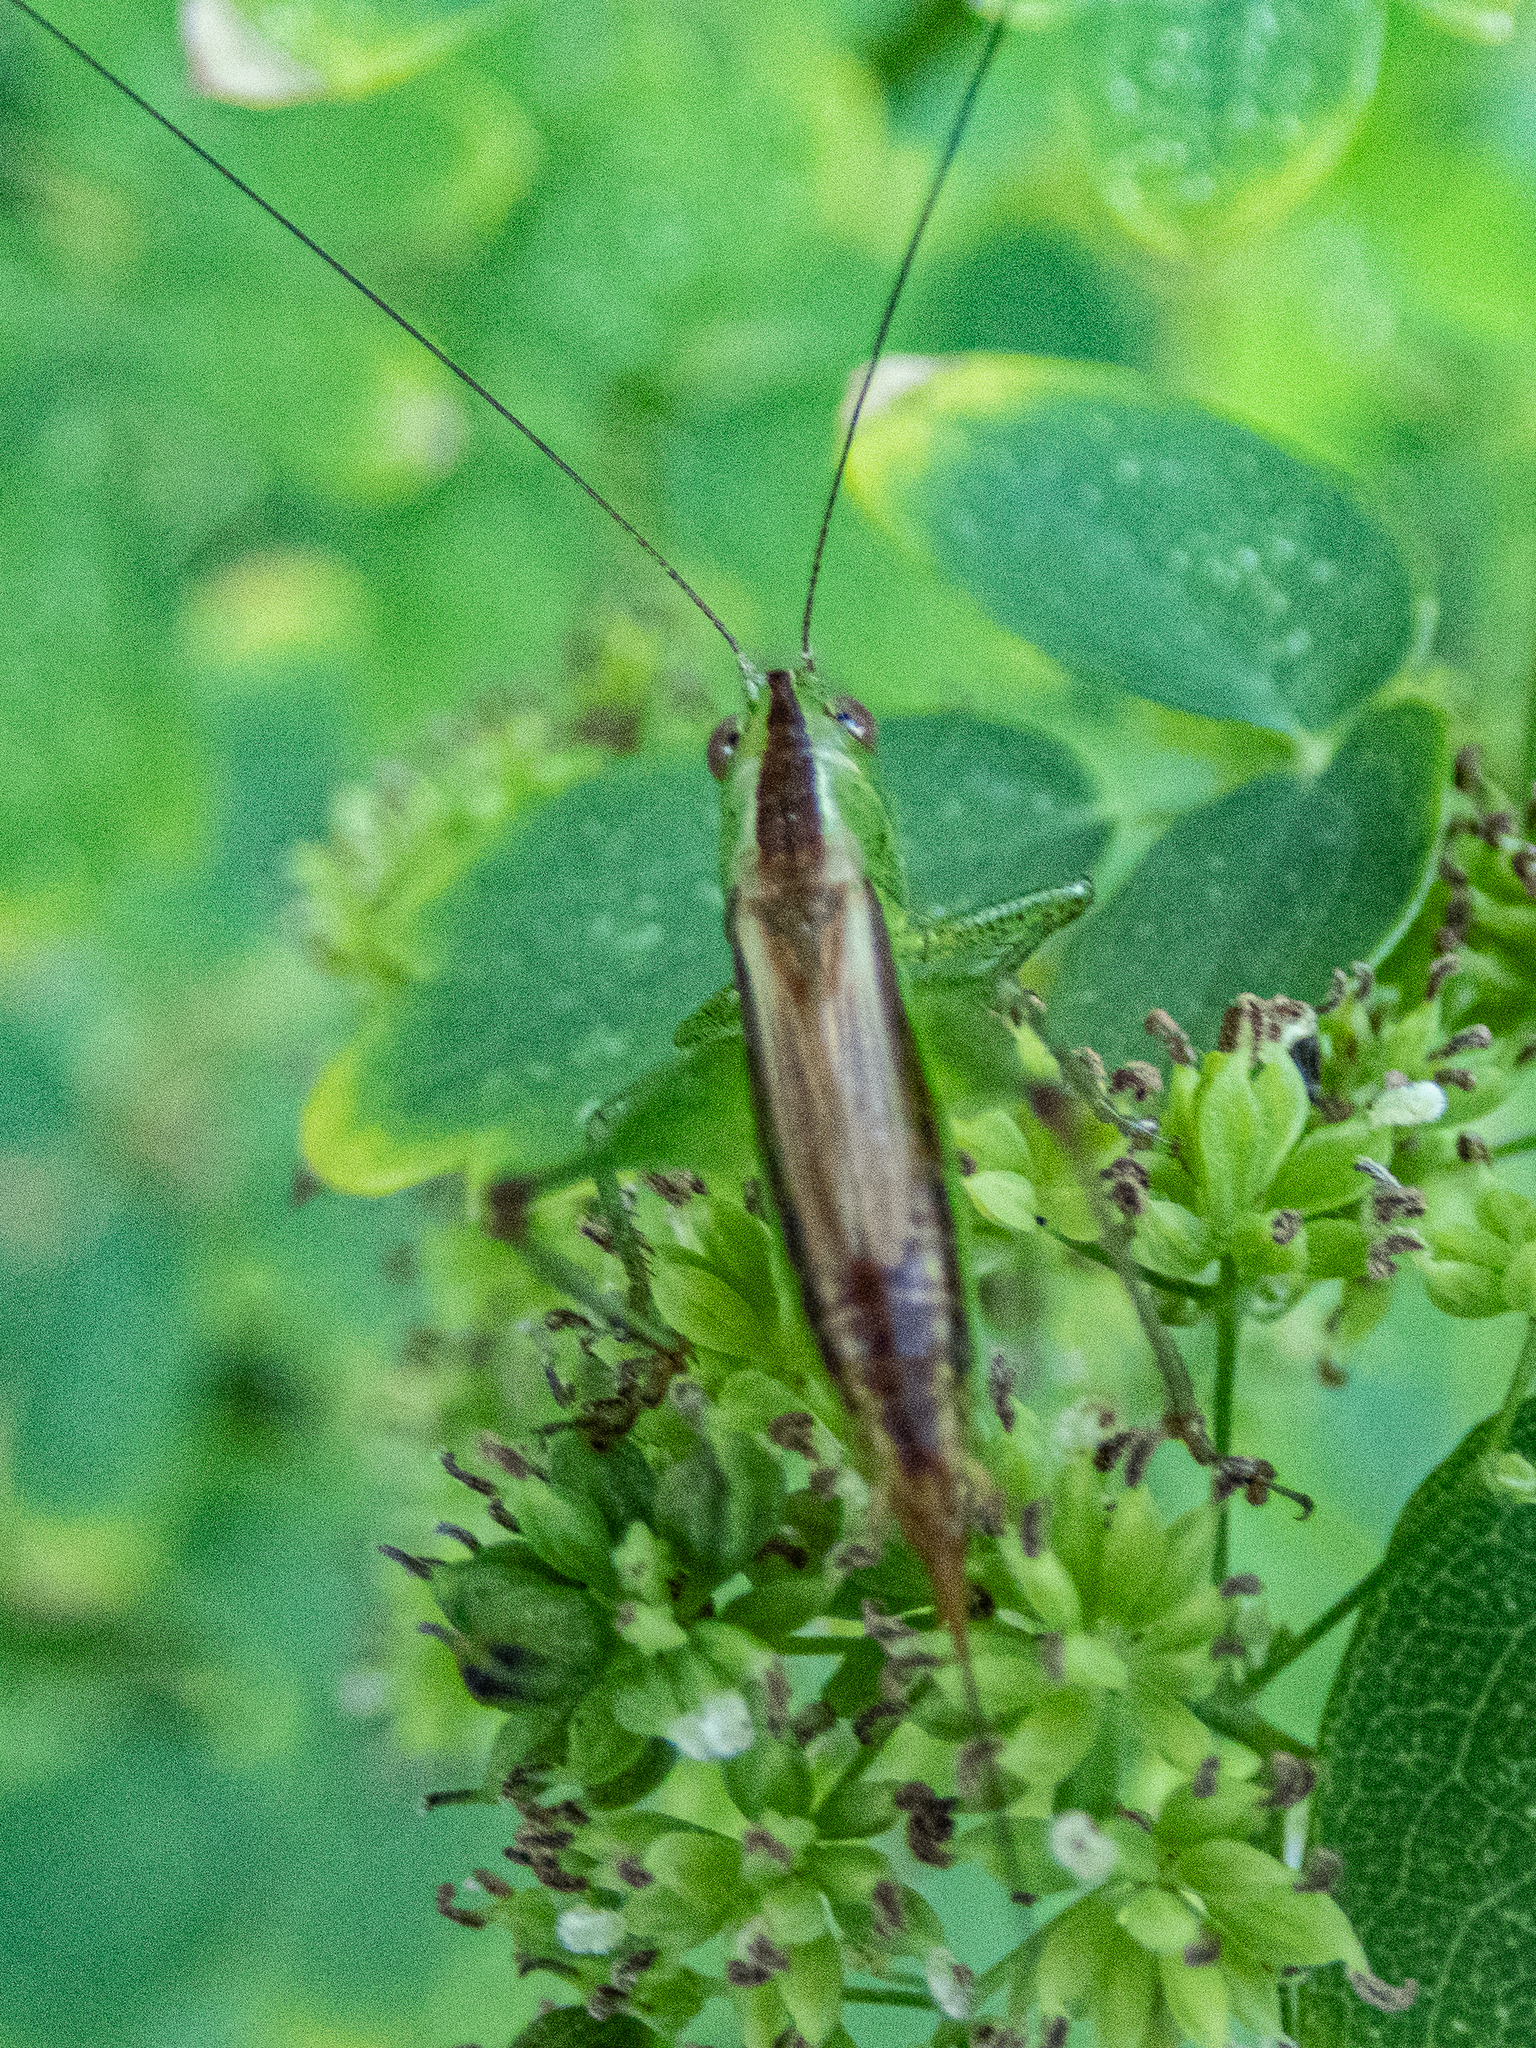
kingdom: Animalia
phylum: Arthropoda
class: Insecta
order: Orthoptera
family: Tettigoniidae
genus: Conocephalus
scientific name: Conocephalus brevipennis
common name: Short-winged meadow katydid
